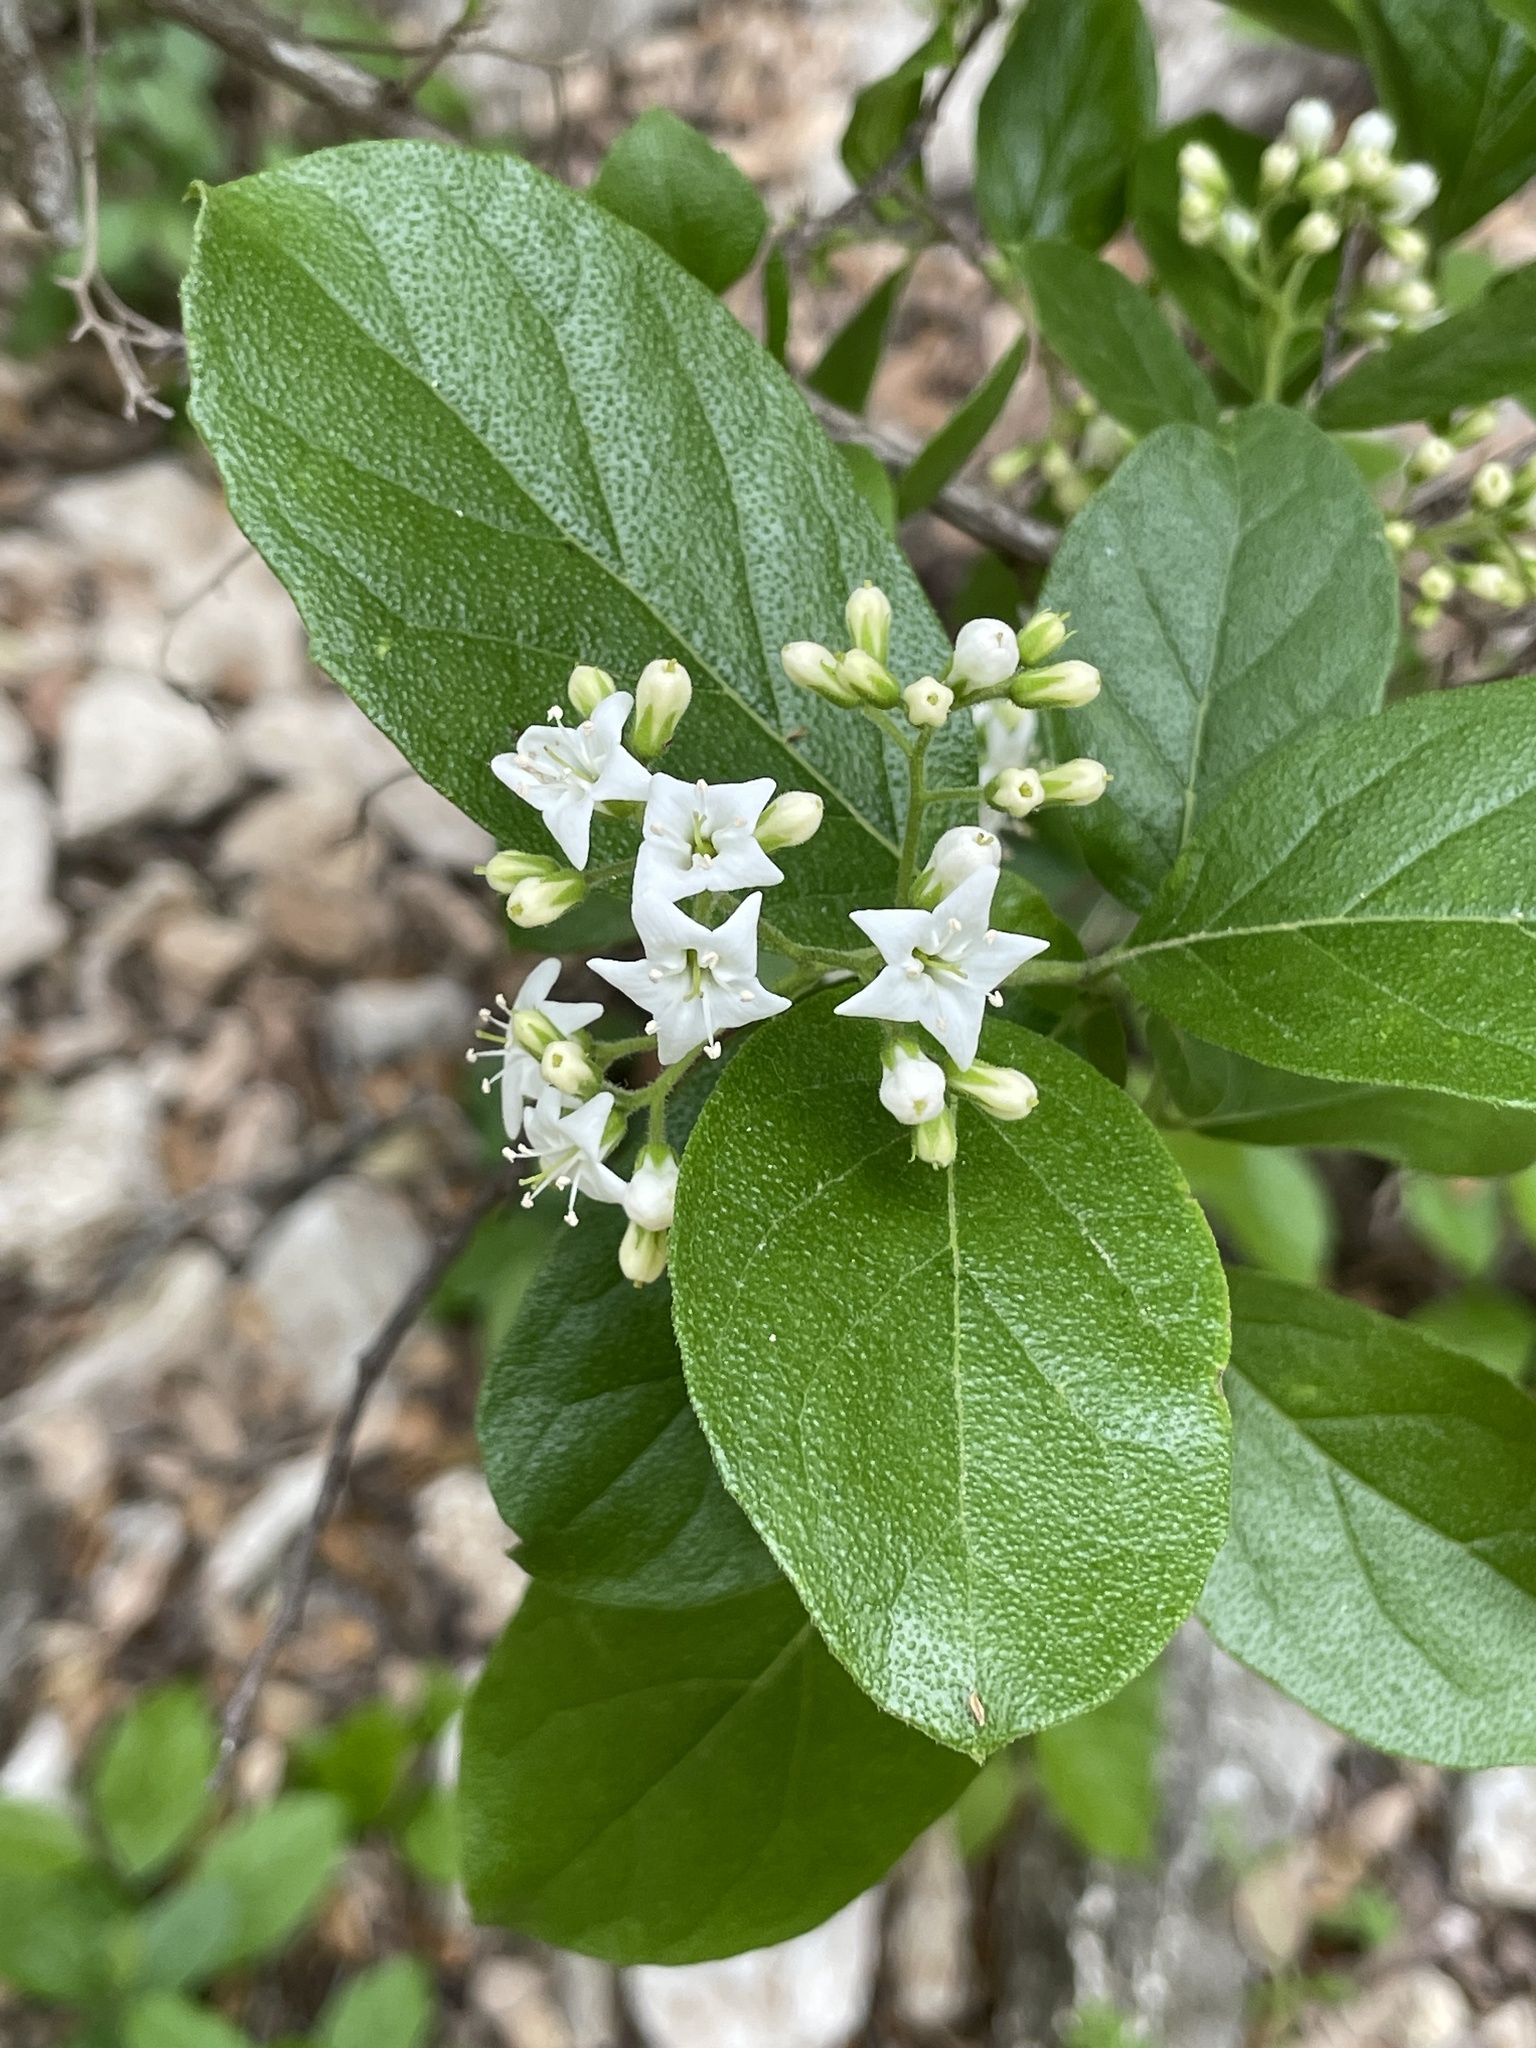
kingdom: Plantae
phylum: Tracheophyta
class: Magnoliopsida
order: Boraginales
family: Ehretiaceae
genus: Ehretia
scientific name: Ehretia anacua
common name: Sugarberry
